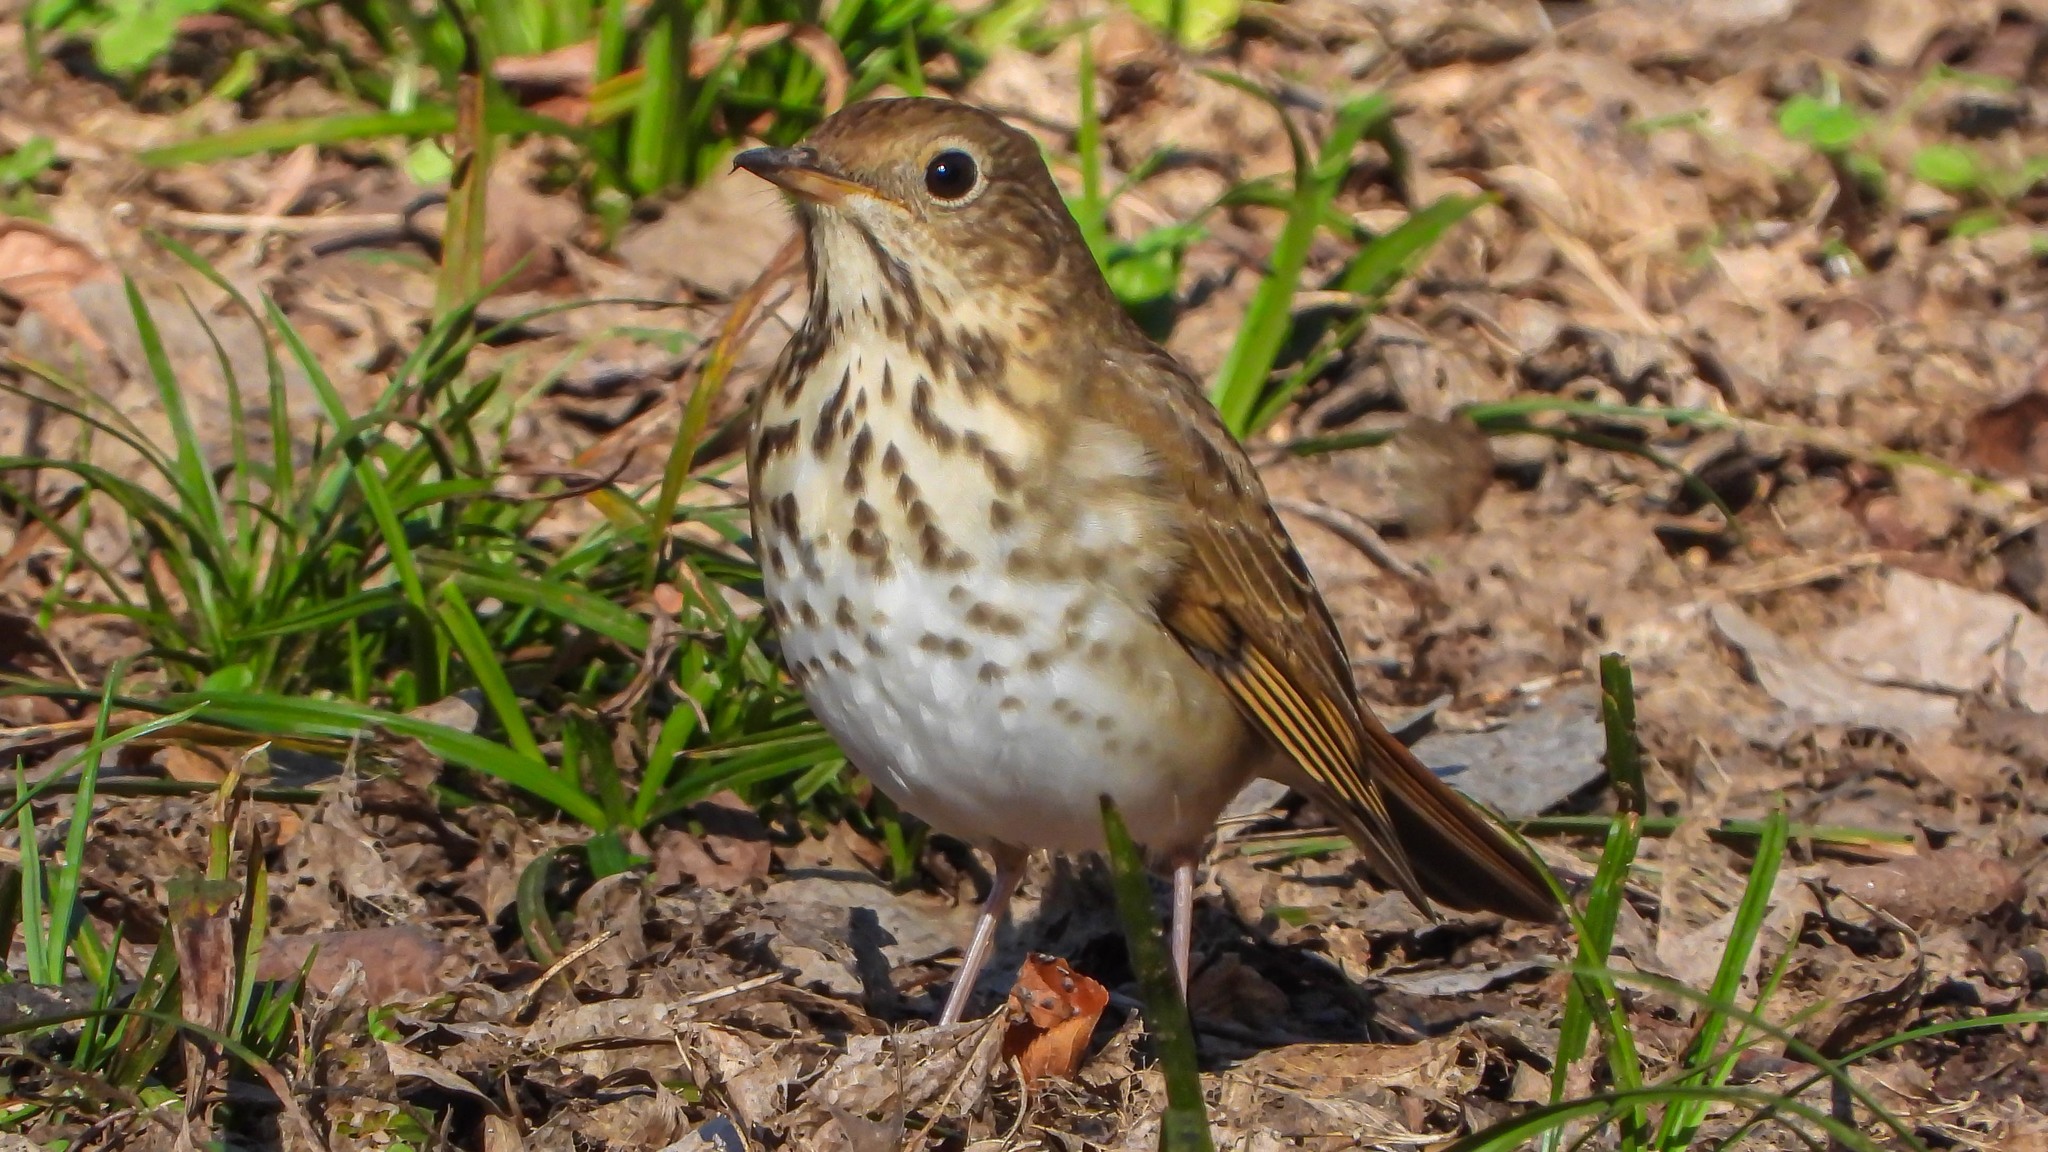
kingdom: Animalia
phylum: Chordata
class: Aves
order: Passeriformes
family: Turdidae
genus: Catharus
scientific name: Catharus guttatus
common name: Hermit thrush
